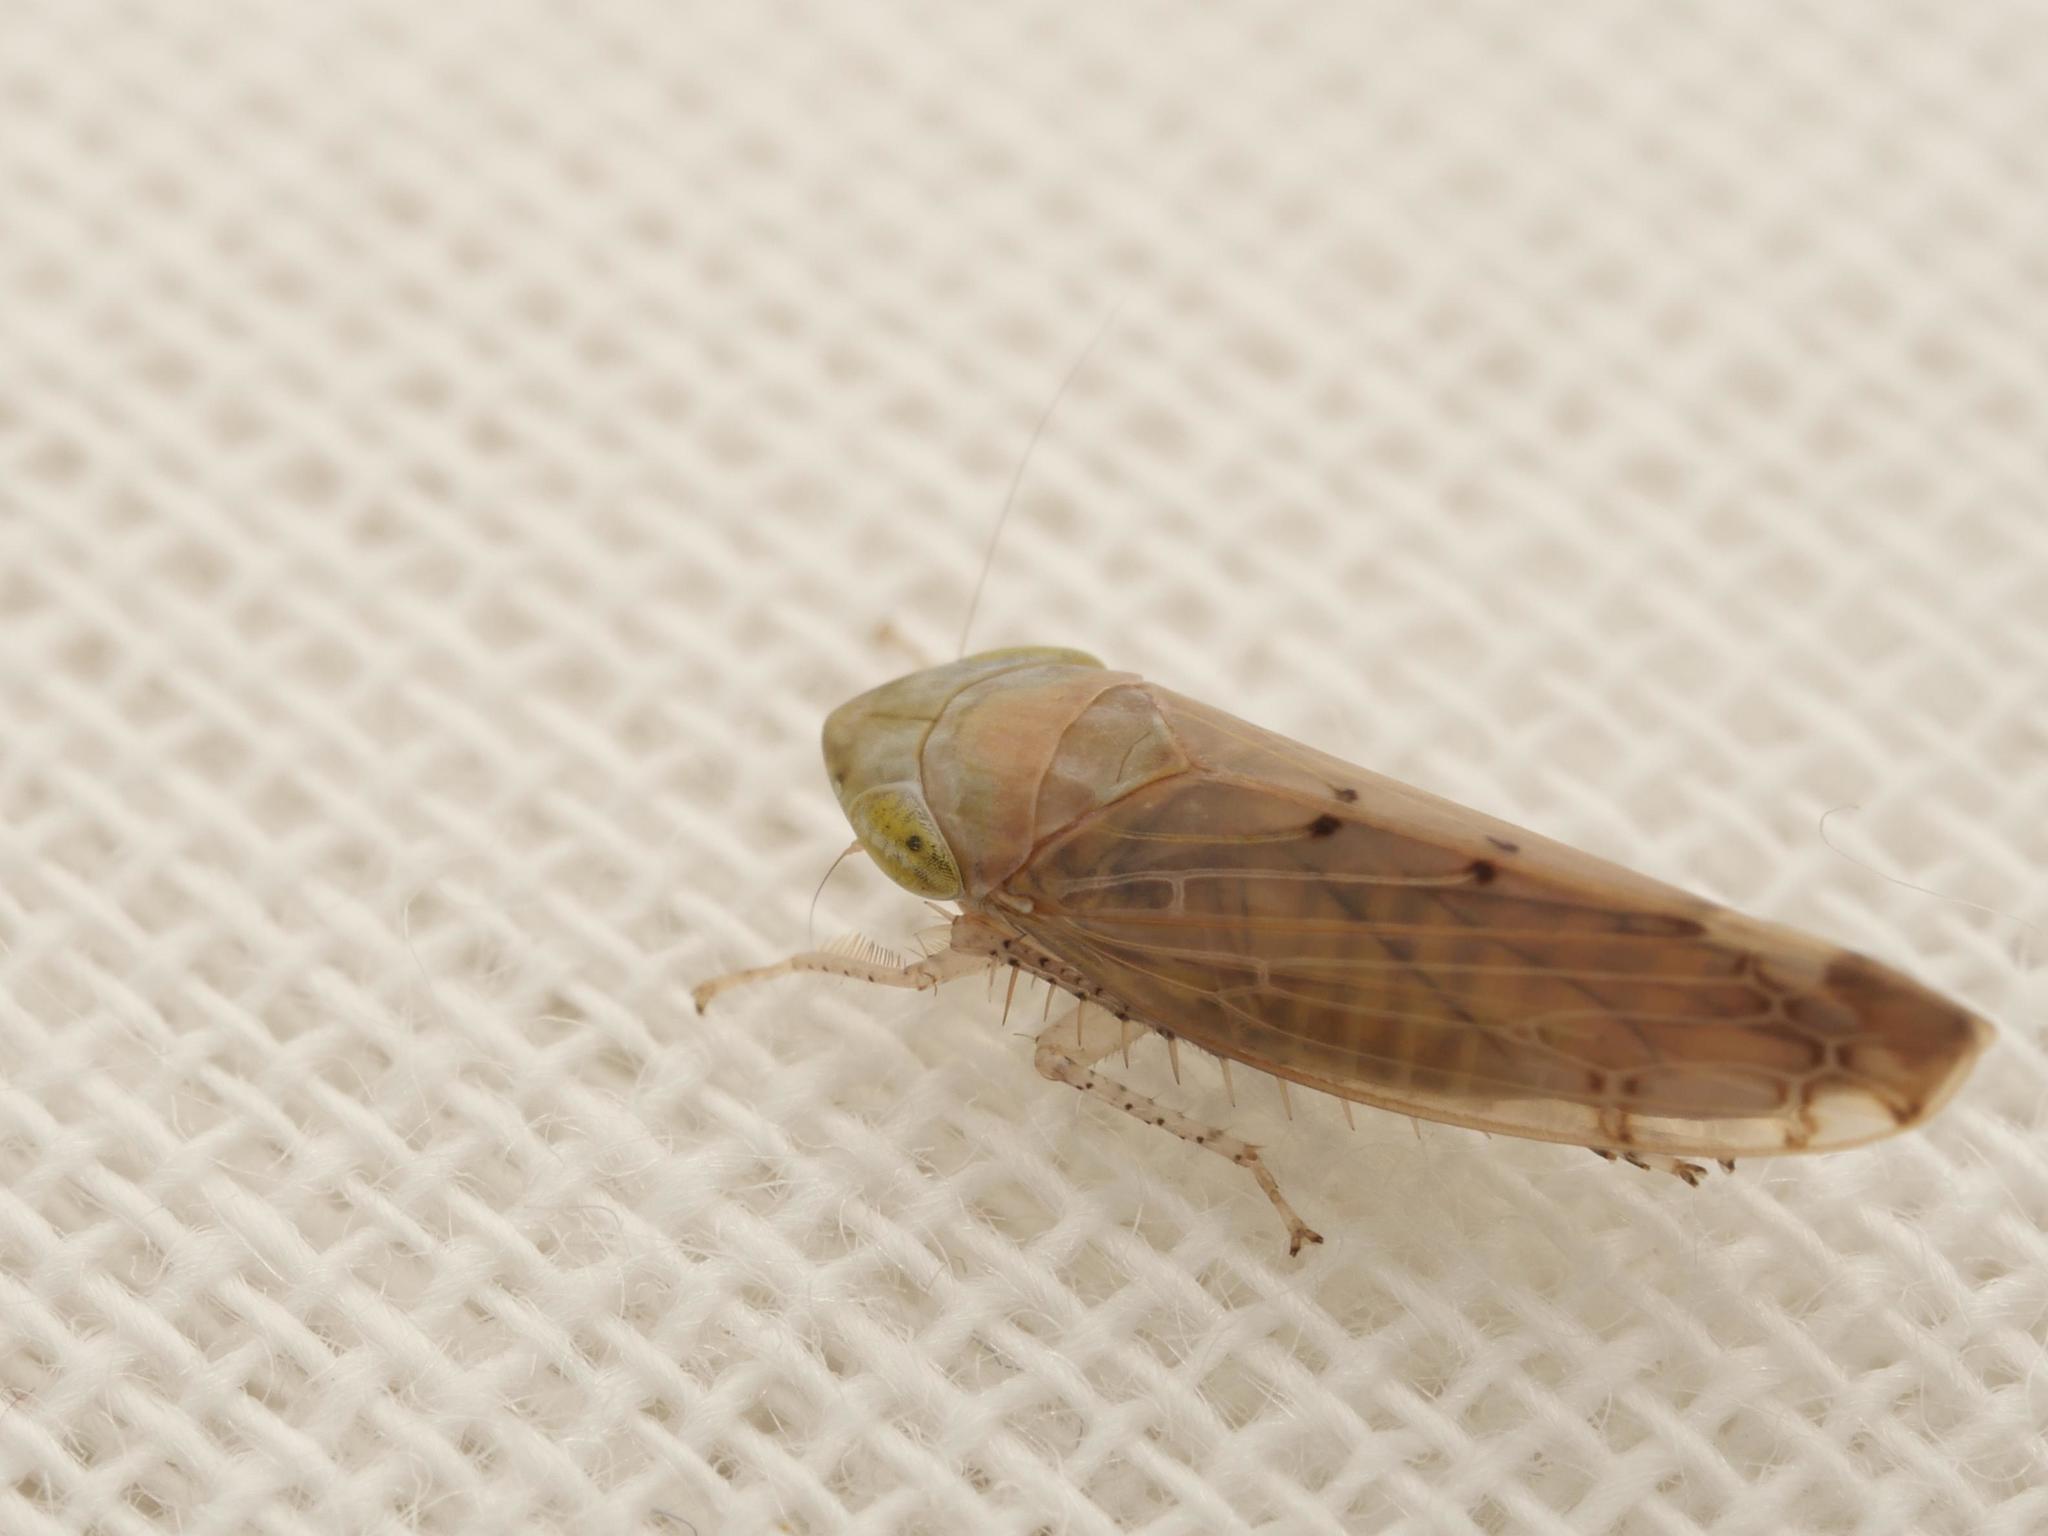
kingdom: Animalia
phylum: Arthropoda
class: Insecta
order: Hemiptera
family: Cicadellidae
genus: Synophropsis
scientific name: Synophropsis lauri
